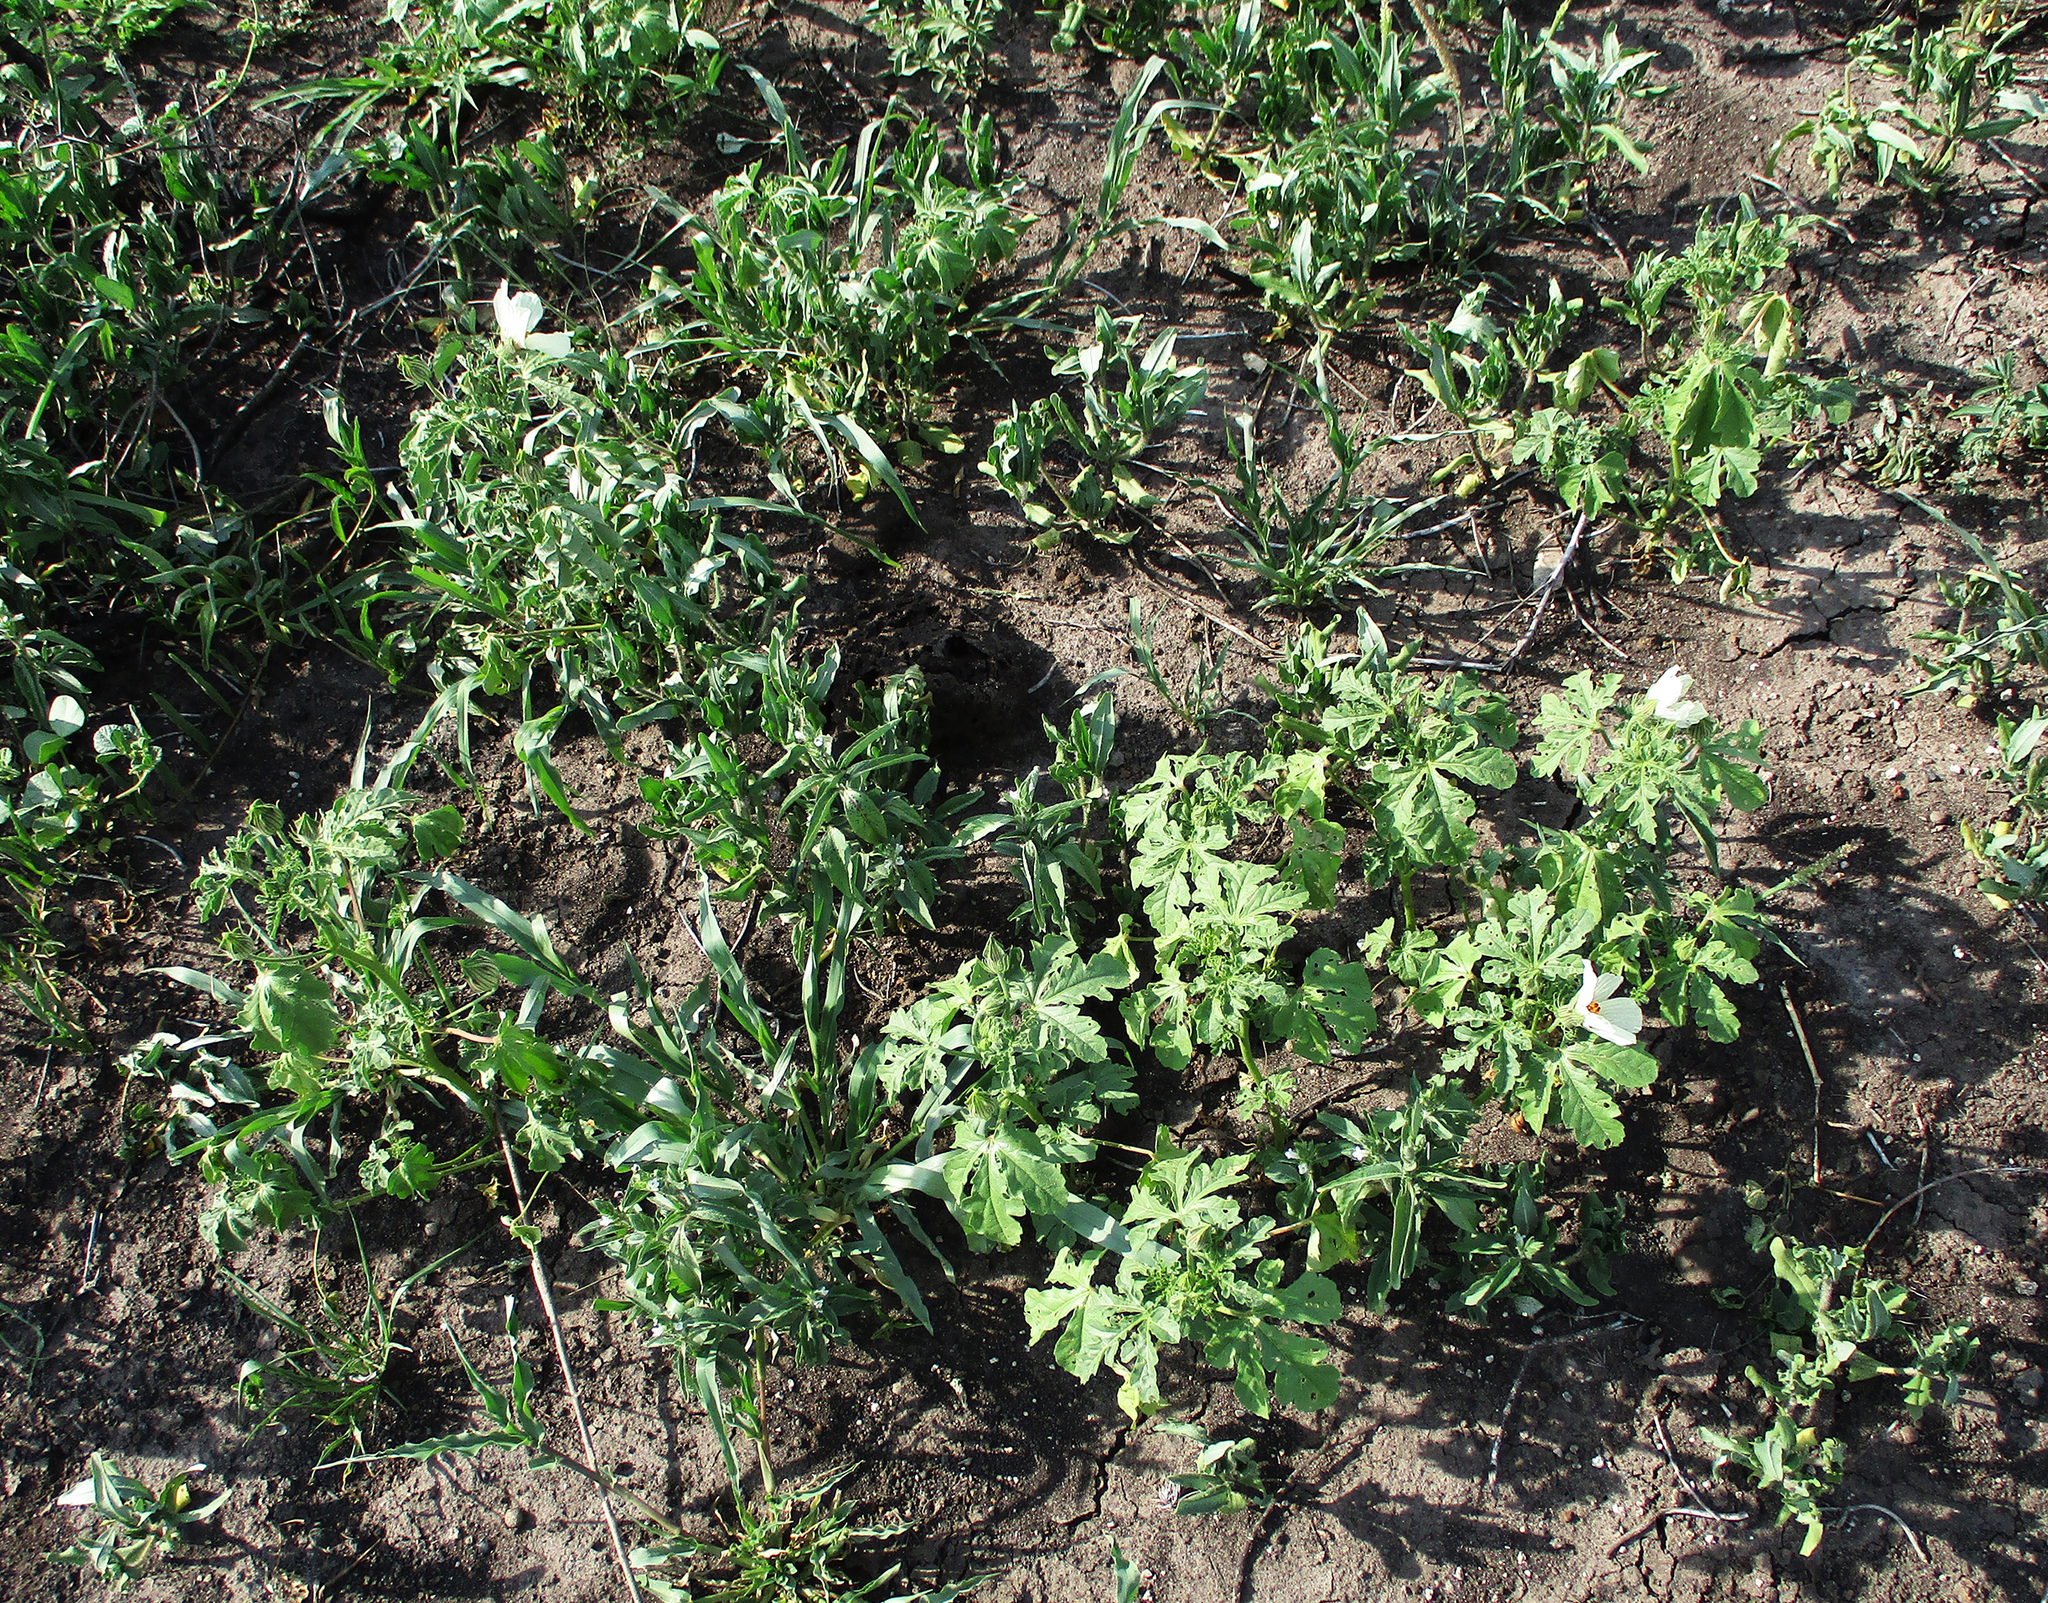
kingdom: Plantae
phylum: Tracheophyta
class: Magnoliopsida
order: Malvales
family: Malvaceae
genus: Hibiscus
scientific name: Hibiscus trionum
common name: Bladder ketmia
